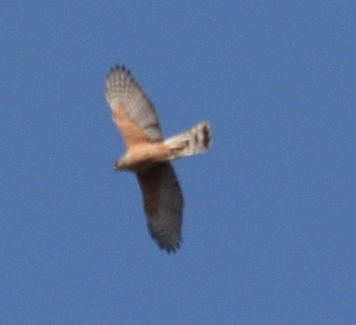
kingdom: Animalia
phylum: Chordata
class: Aves
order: Accipitriformes
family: Accipitridae
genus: Accipiter
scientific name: Accipiter cooperii
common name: Cooper's hawk
